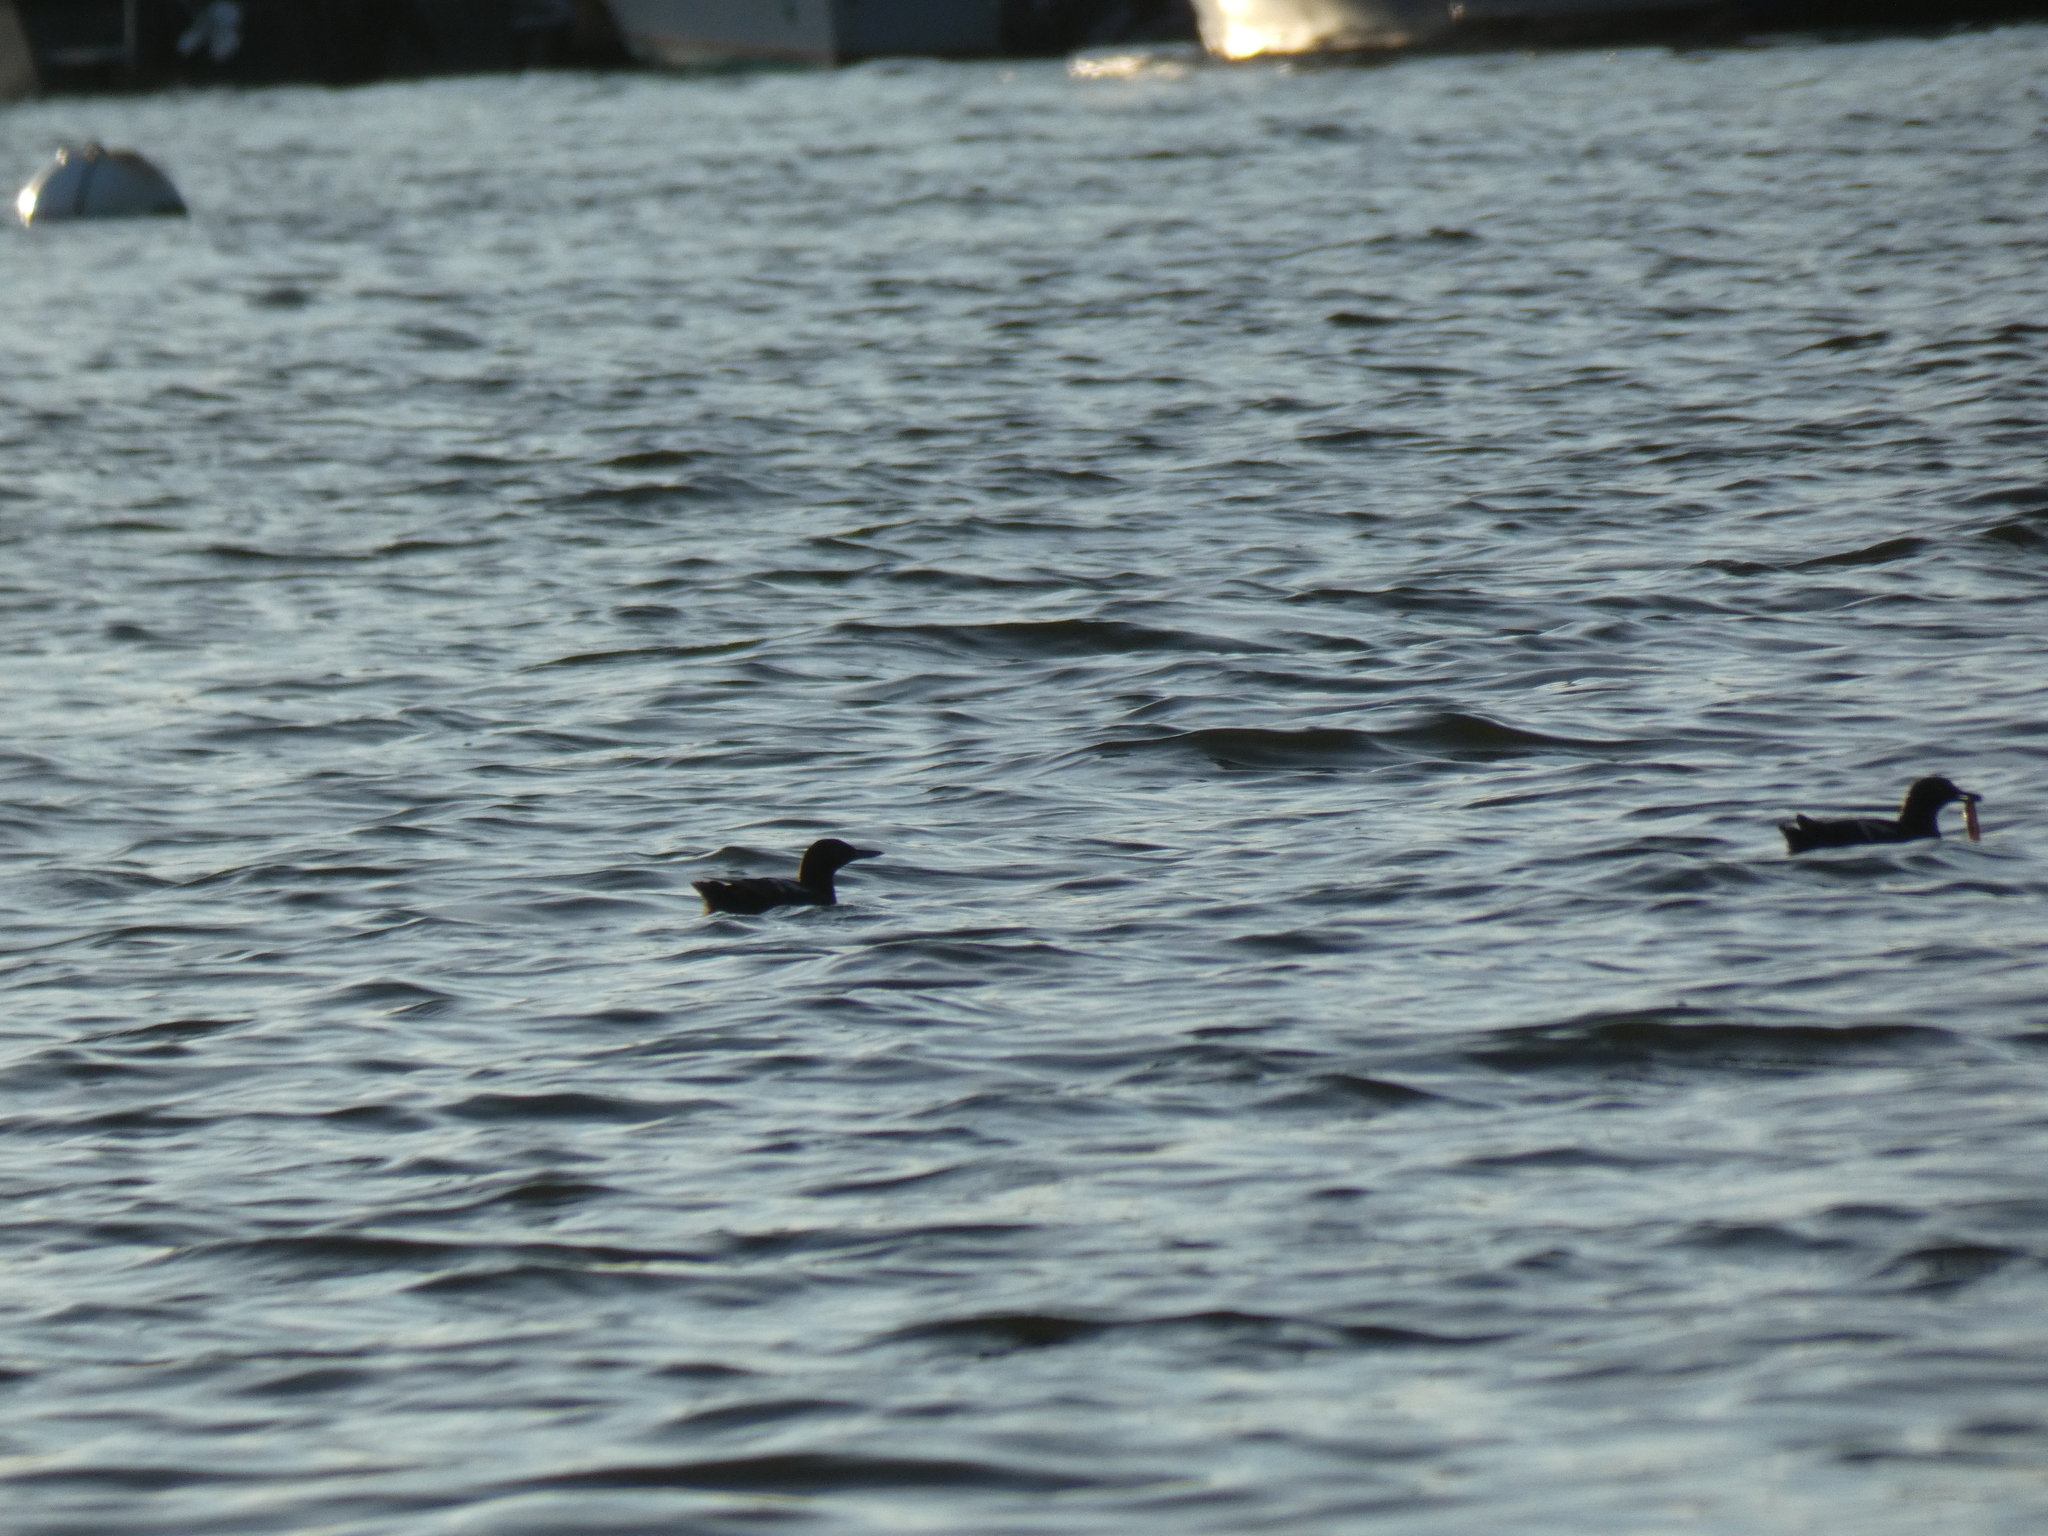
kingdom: Animalia
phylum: Chordata
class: Aves
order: Charadriiformes
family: Alcidae
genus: Cepphus
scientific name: Cepphus columba
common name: Pigeon guillemot
